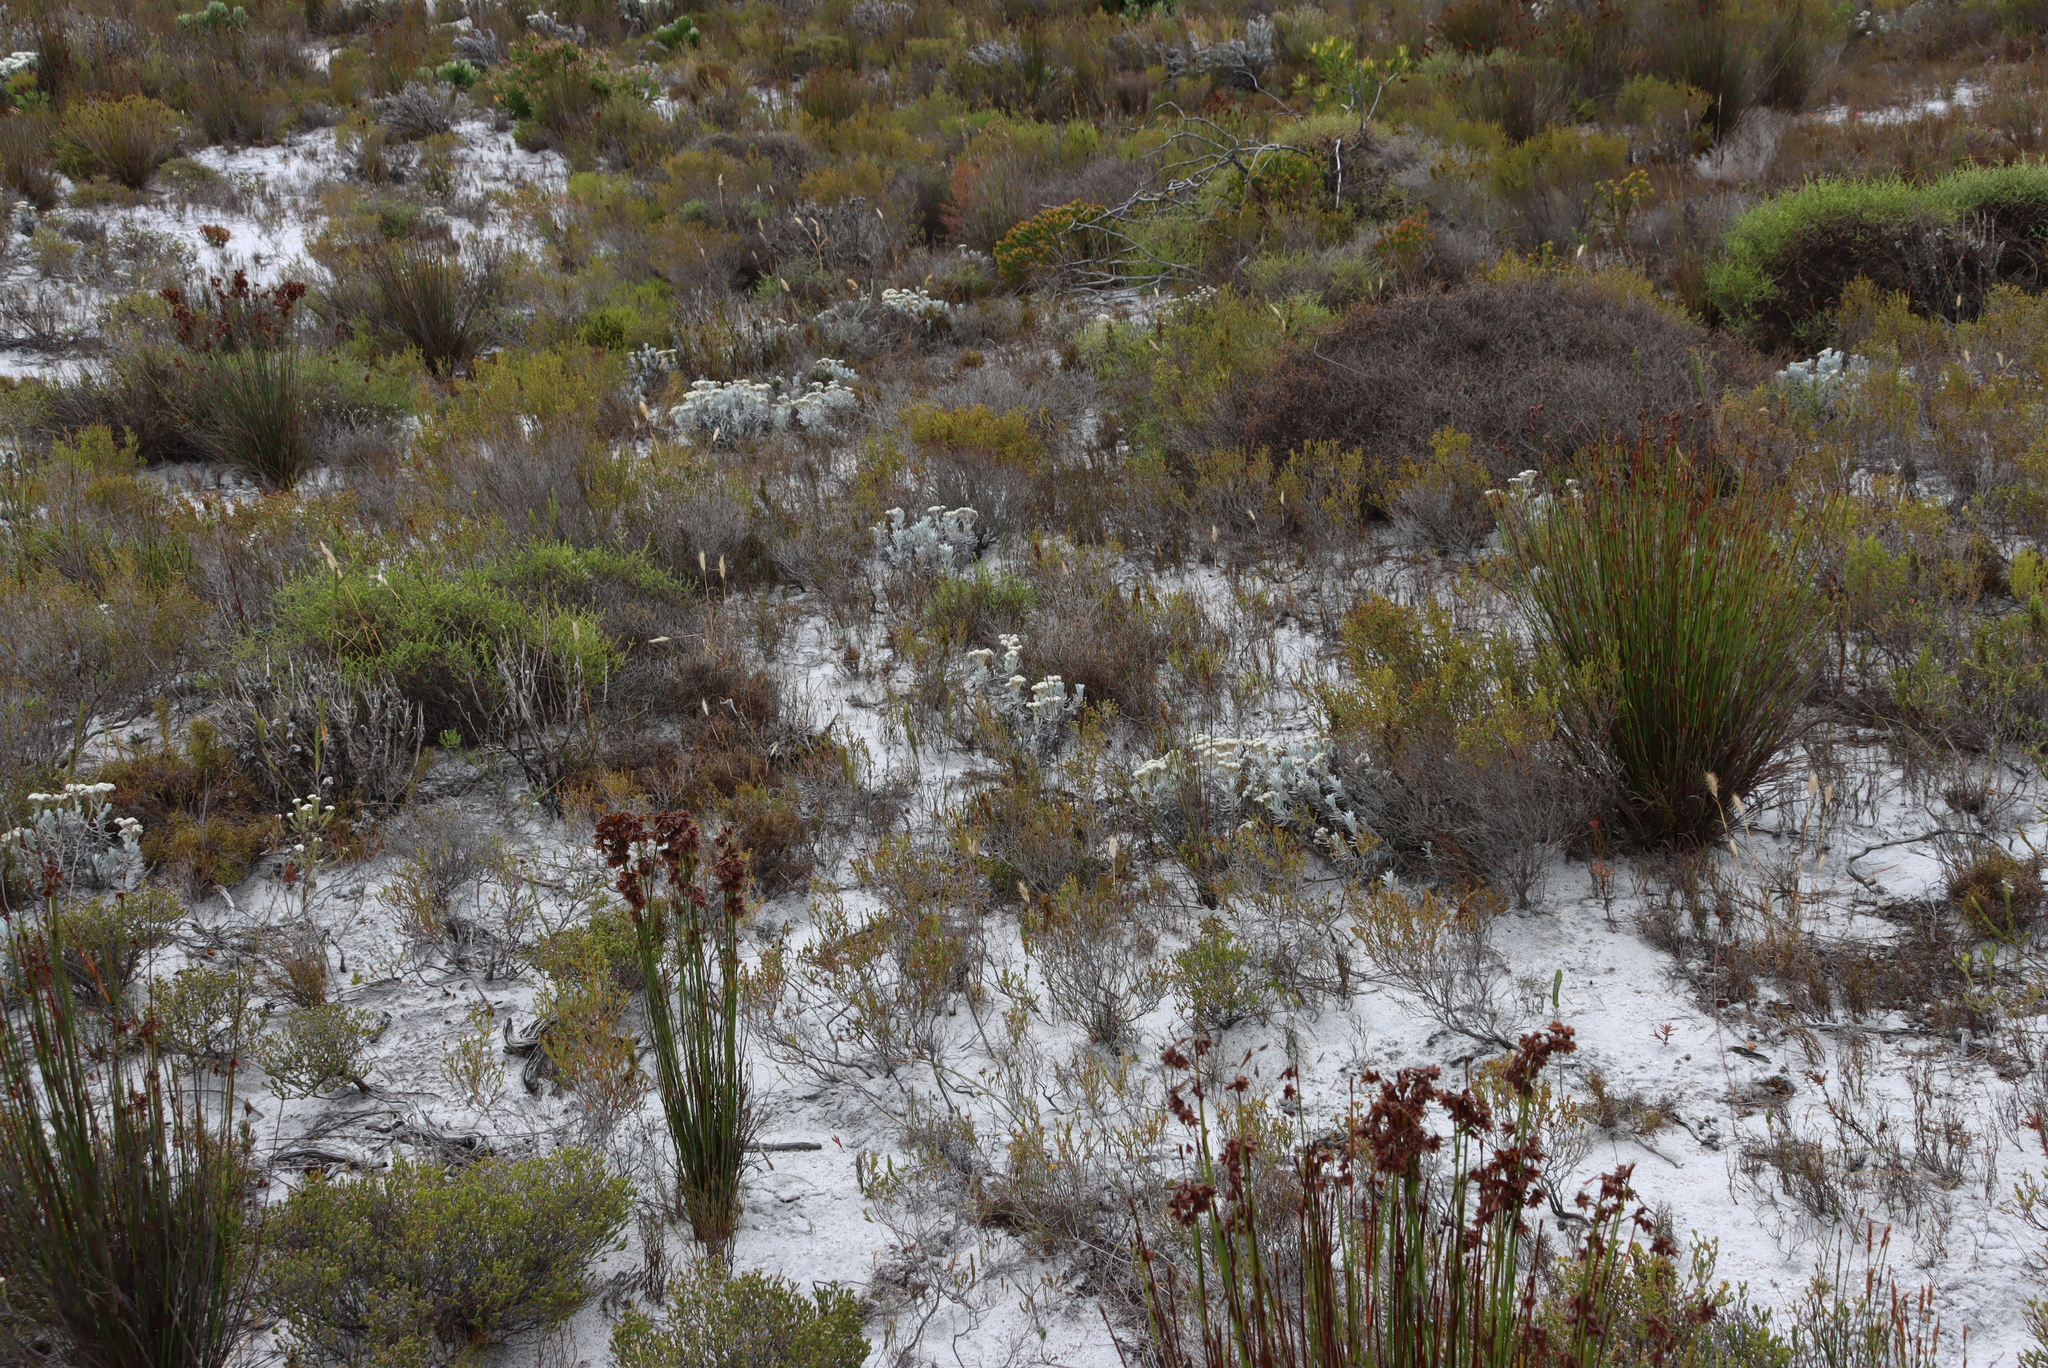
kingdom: Plantae
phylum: Tracheophyta
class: Magnoliopsida
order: Asterales
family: Asteraceae
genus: Petalacte
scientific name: Petalacte coronata
